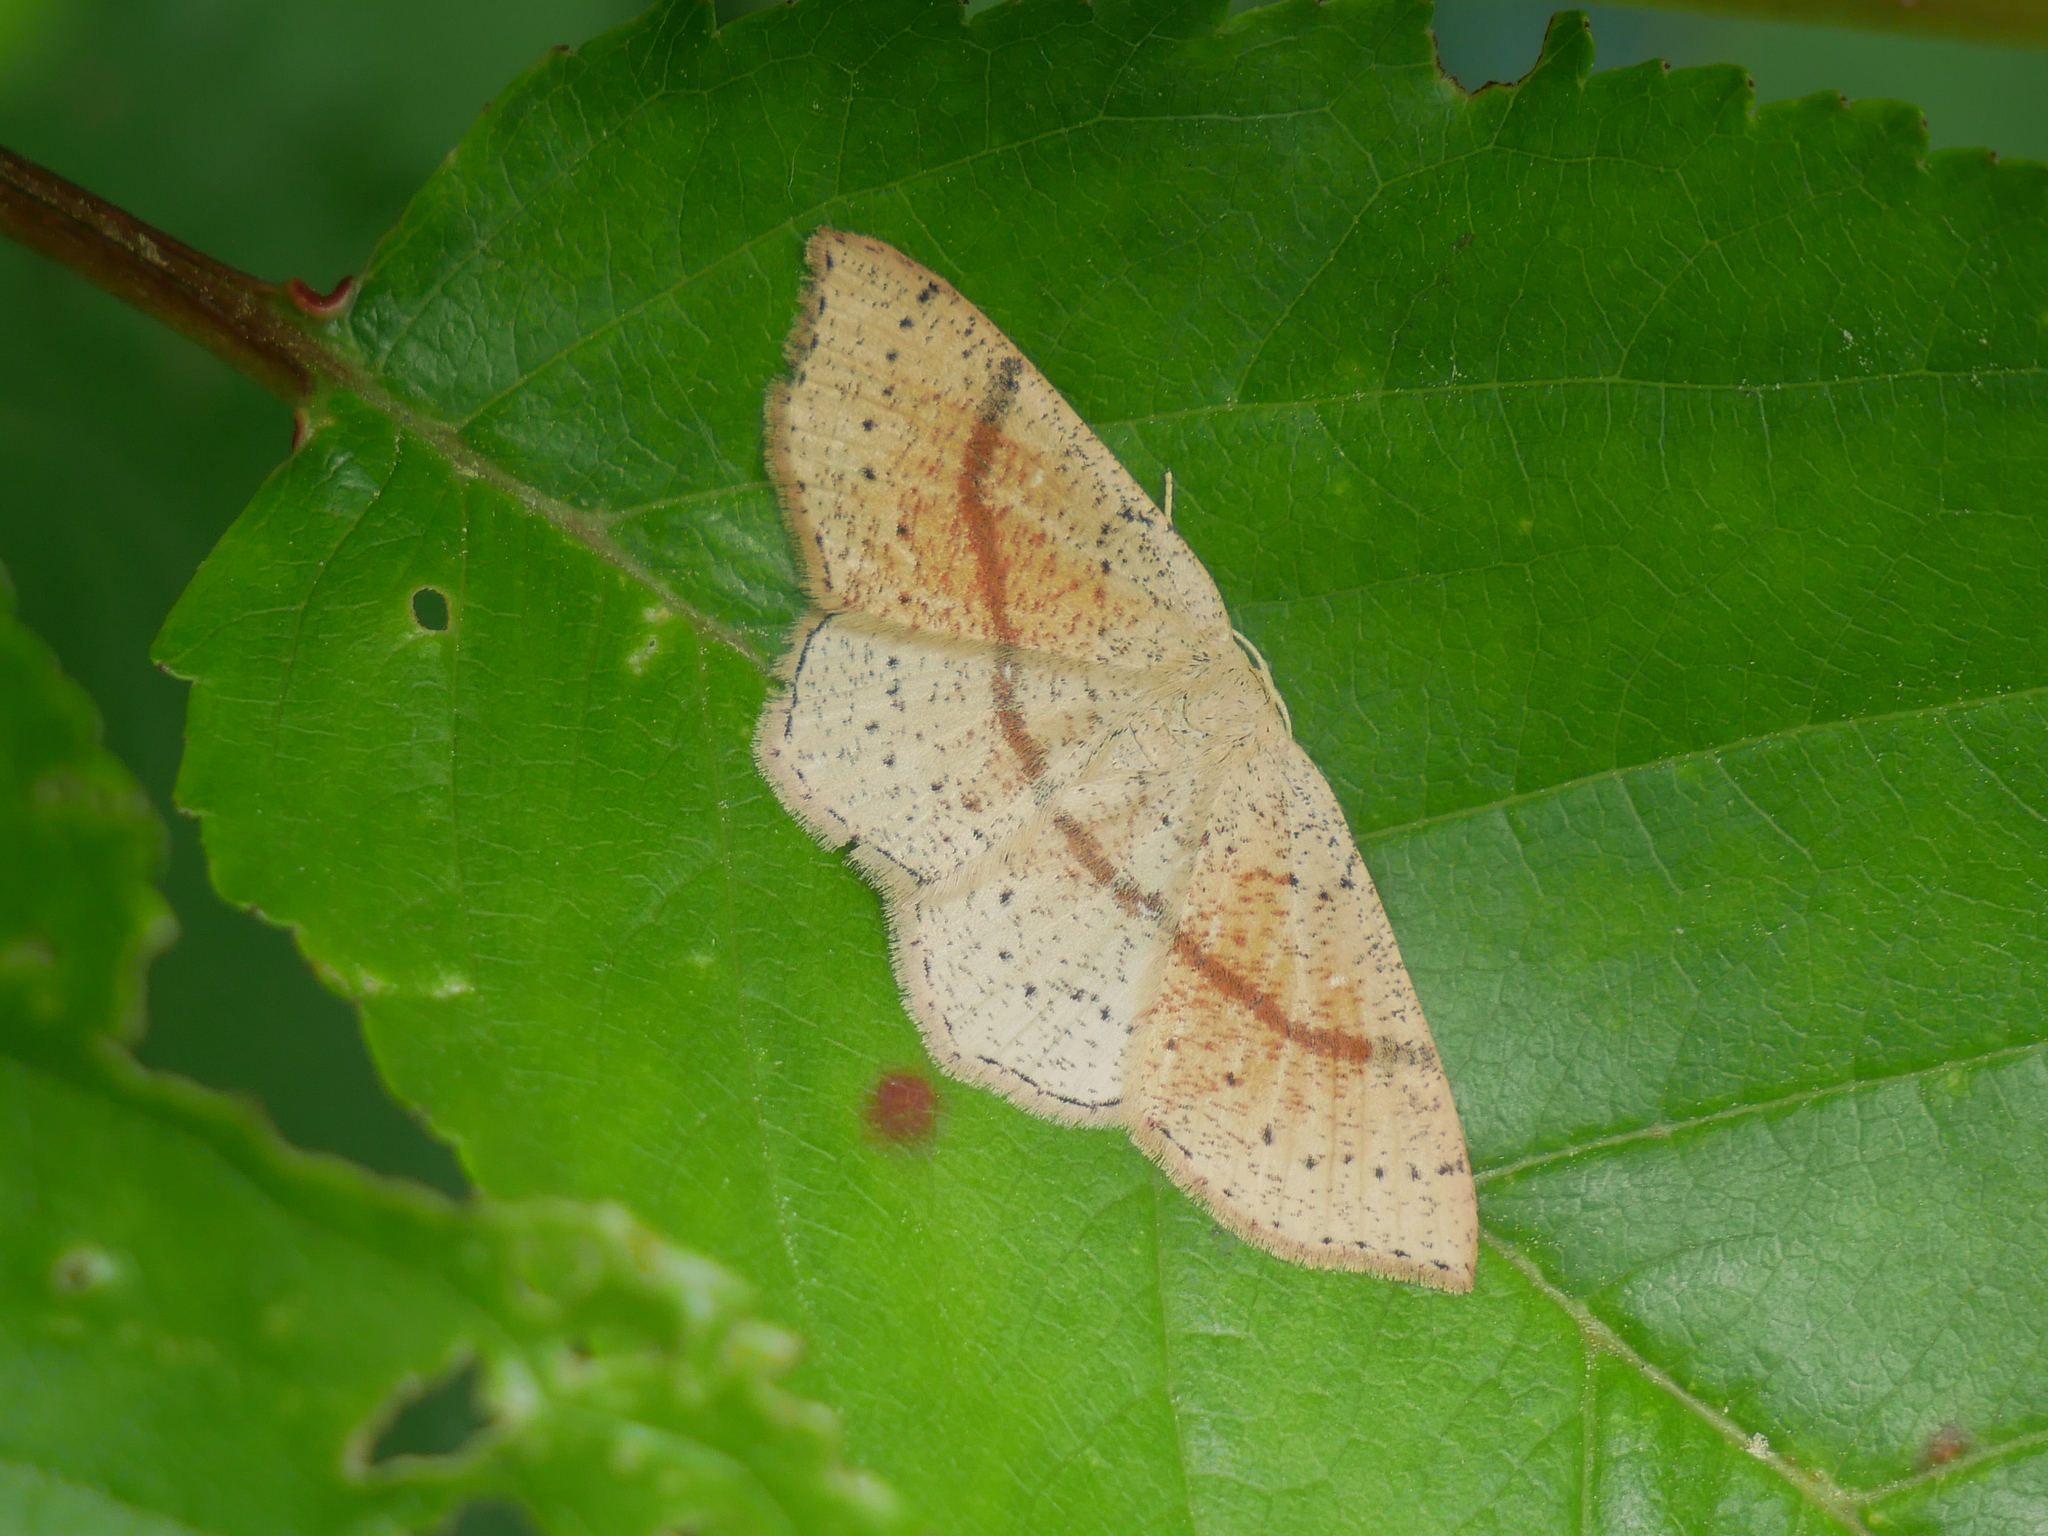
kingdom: Animalia
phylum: Arthropoda
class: Insecta
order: Lepidoptera
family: Geometridae
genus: Cyclophora
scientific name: Cyclophora punctaria
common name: Maiden's blush
